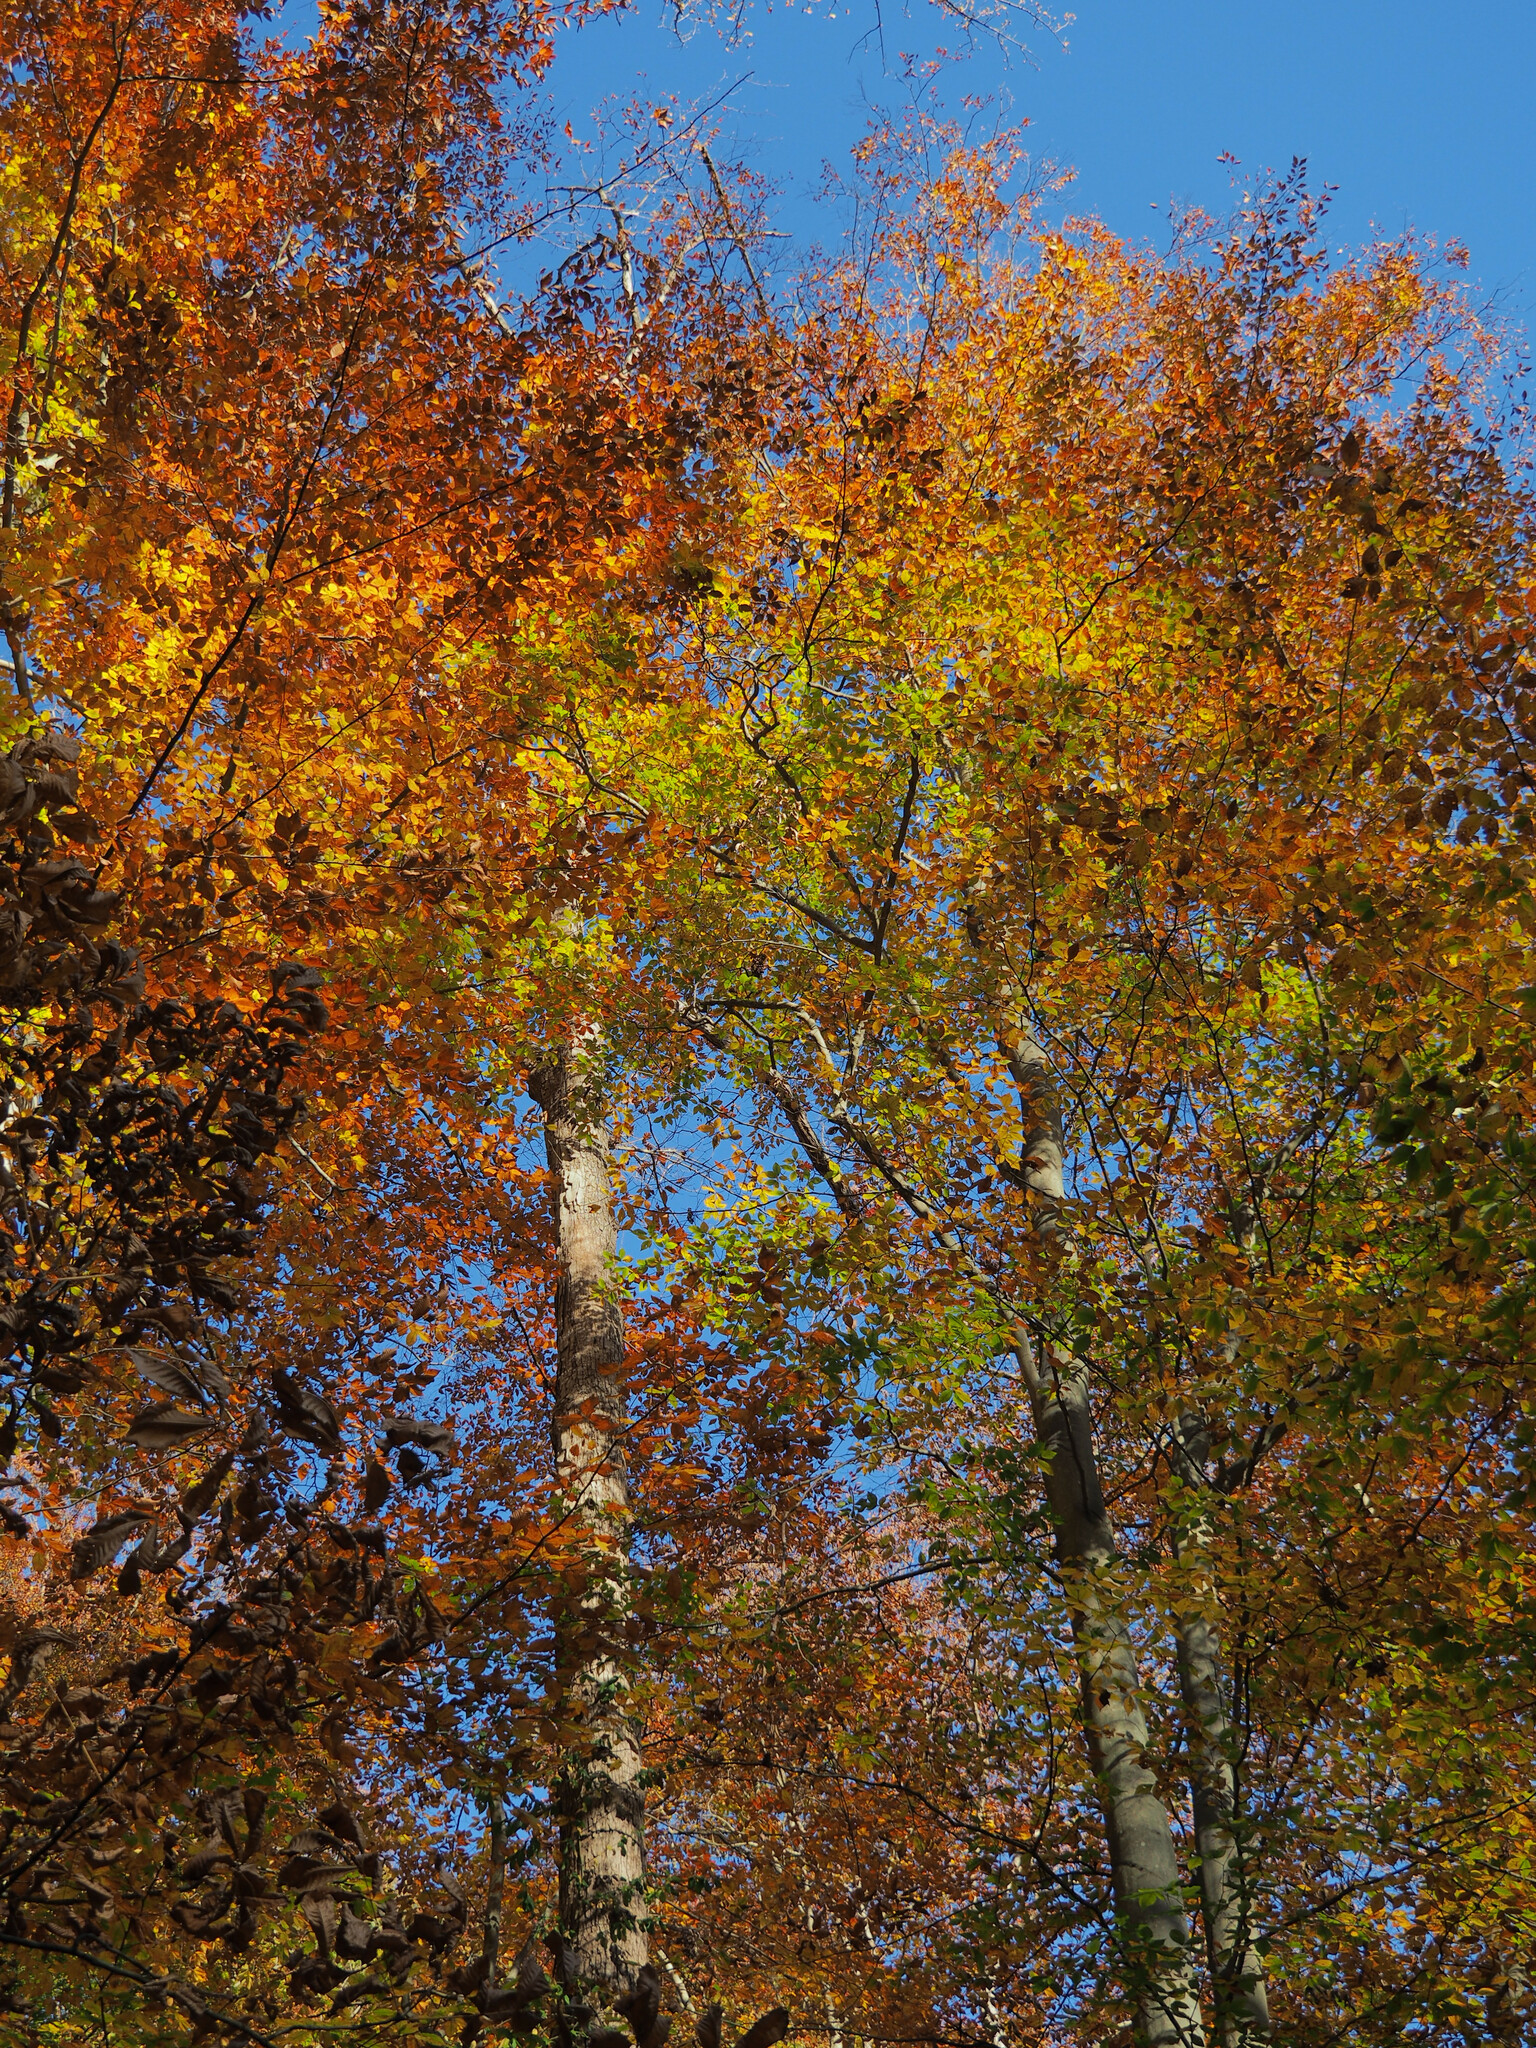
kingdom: Plantae
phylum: Tracheophyta
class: Magnoliopsida
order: Fagales
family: Fagaceae
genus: Fagus
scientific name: Fagus grandifolia
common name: American beech
